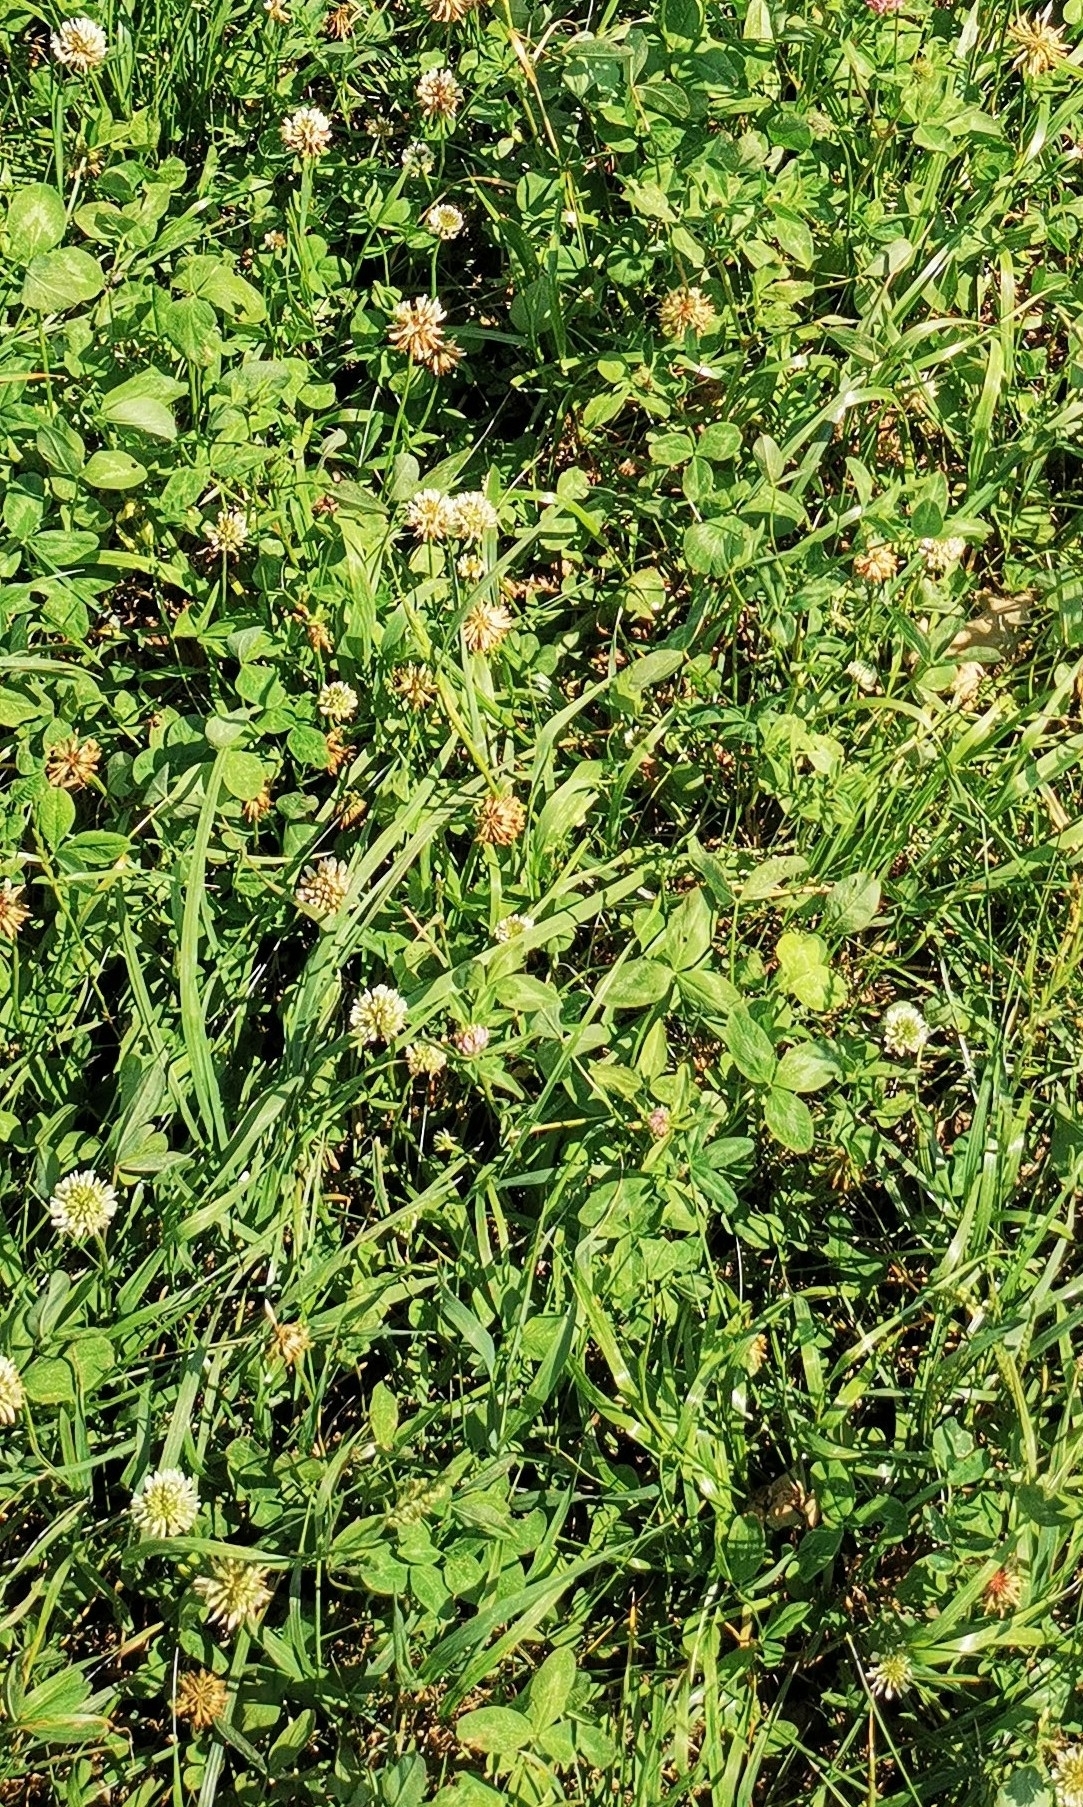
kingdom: Plantae
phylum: Tracheophyta
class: Magnoliopsida
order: Fabales
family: Fabaceae
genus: Trifolium
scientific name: Trifolium repens
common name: White clover
